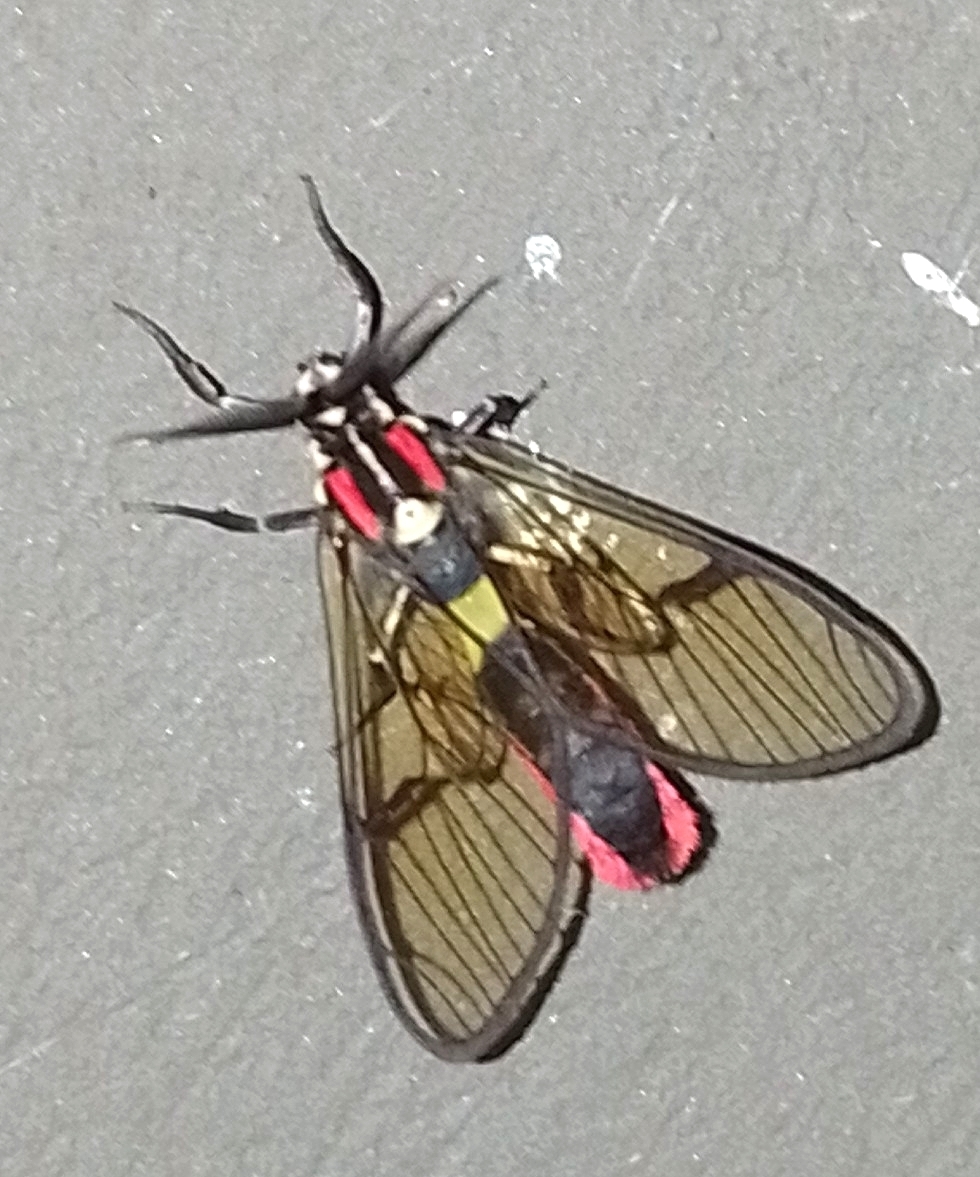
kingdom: Animalia
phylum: Arthropoda
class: Insecta
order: Lepidoptera
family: Erebidae
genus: Argyroeides
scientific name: Argyroeides braco
